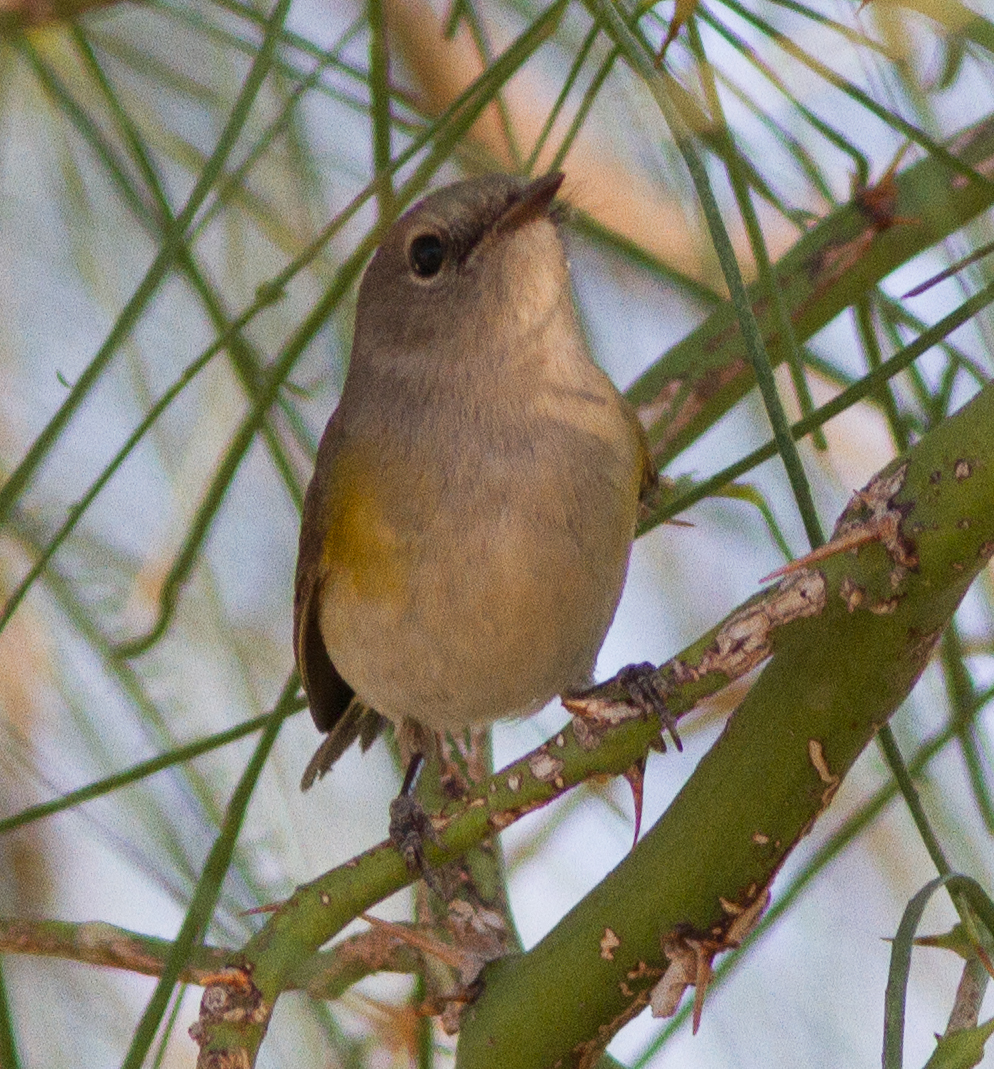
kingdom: Animalia
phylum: Chordata
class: Aves
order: Passeriformes
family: Parulidae
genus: Setophaga
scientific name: Setophaga ruticilla
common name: American redstart
